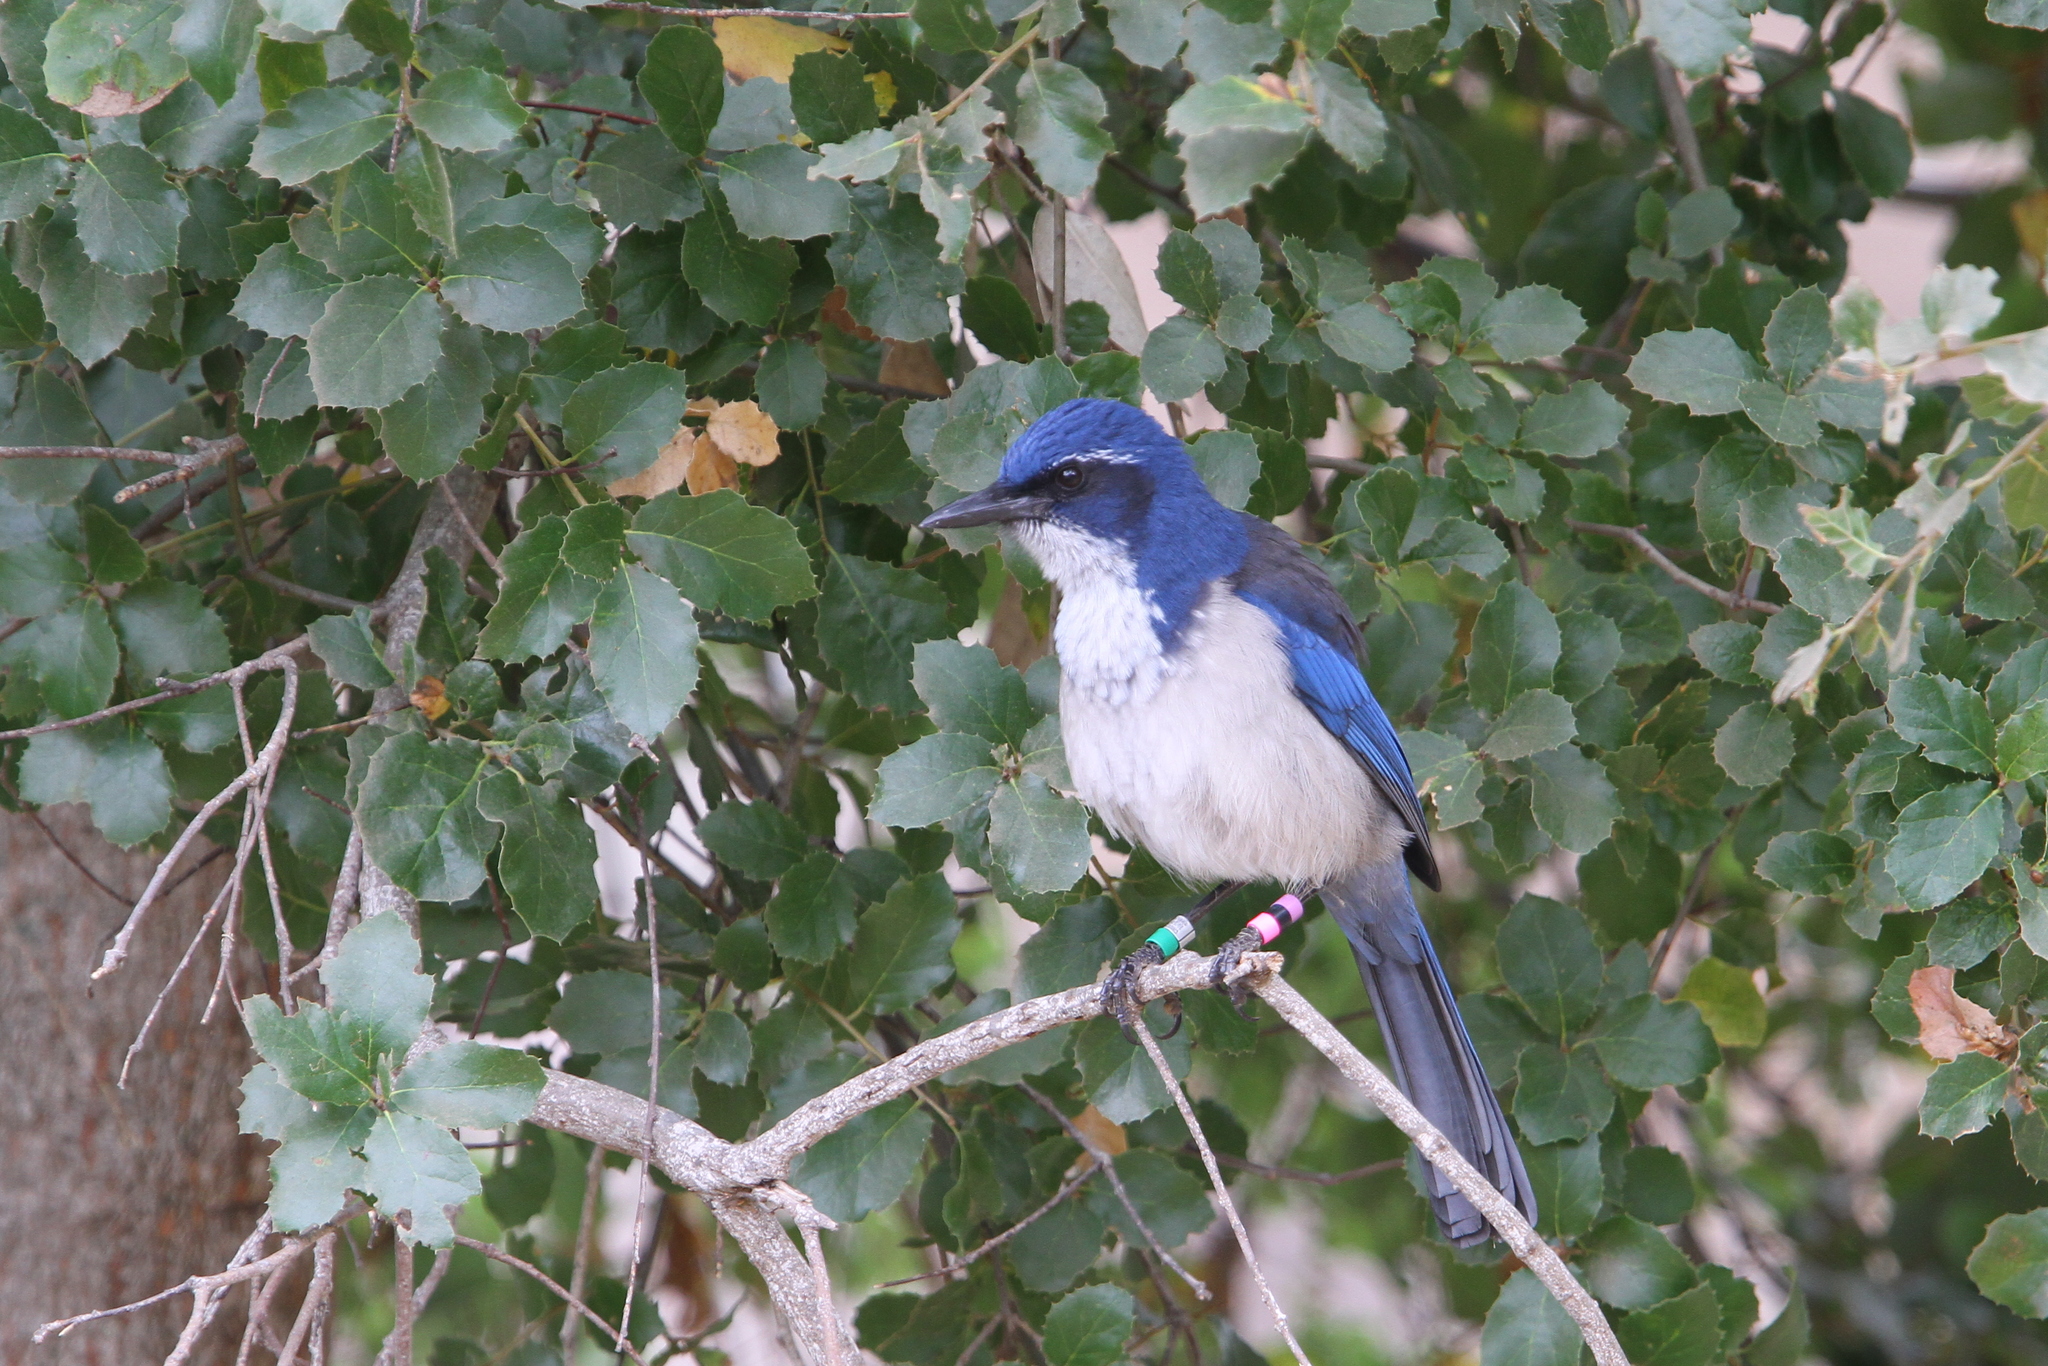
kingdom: Animalia
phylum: Chordata
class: Aves
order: Passeriformes
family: Corvidae
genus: Aphelocoma
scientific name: Aphelocoma insularis
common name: Island scrub-jay
